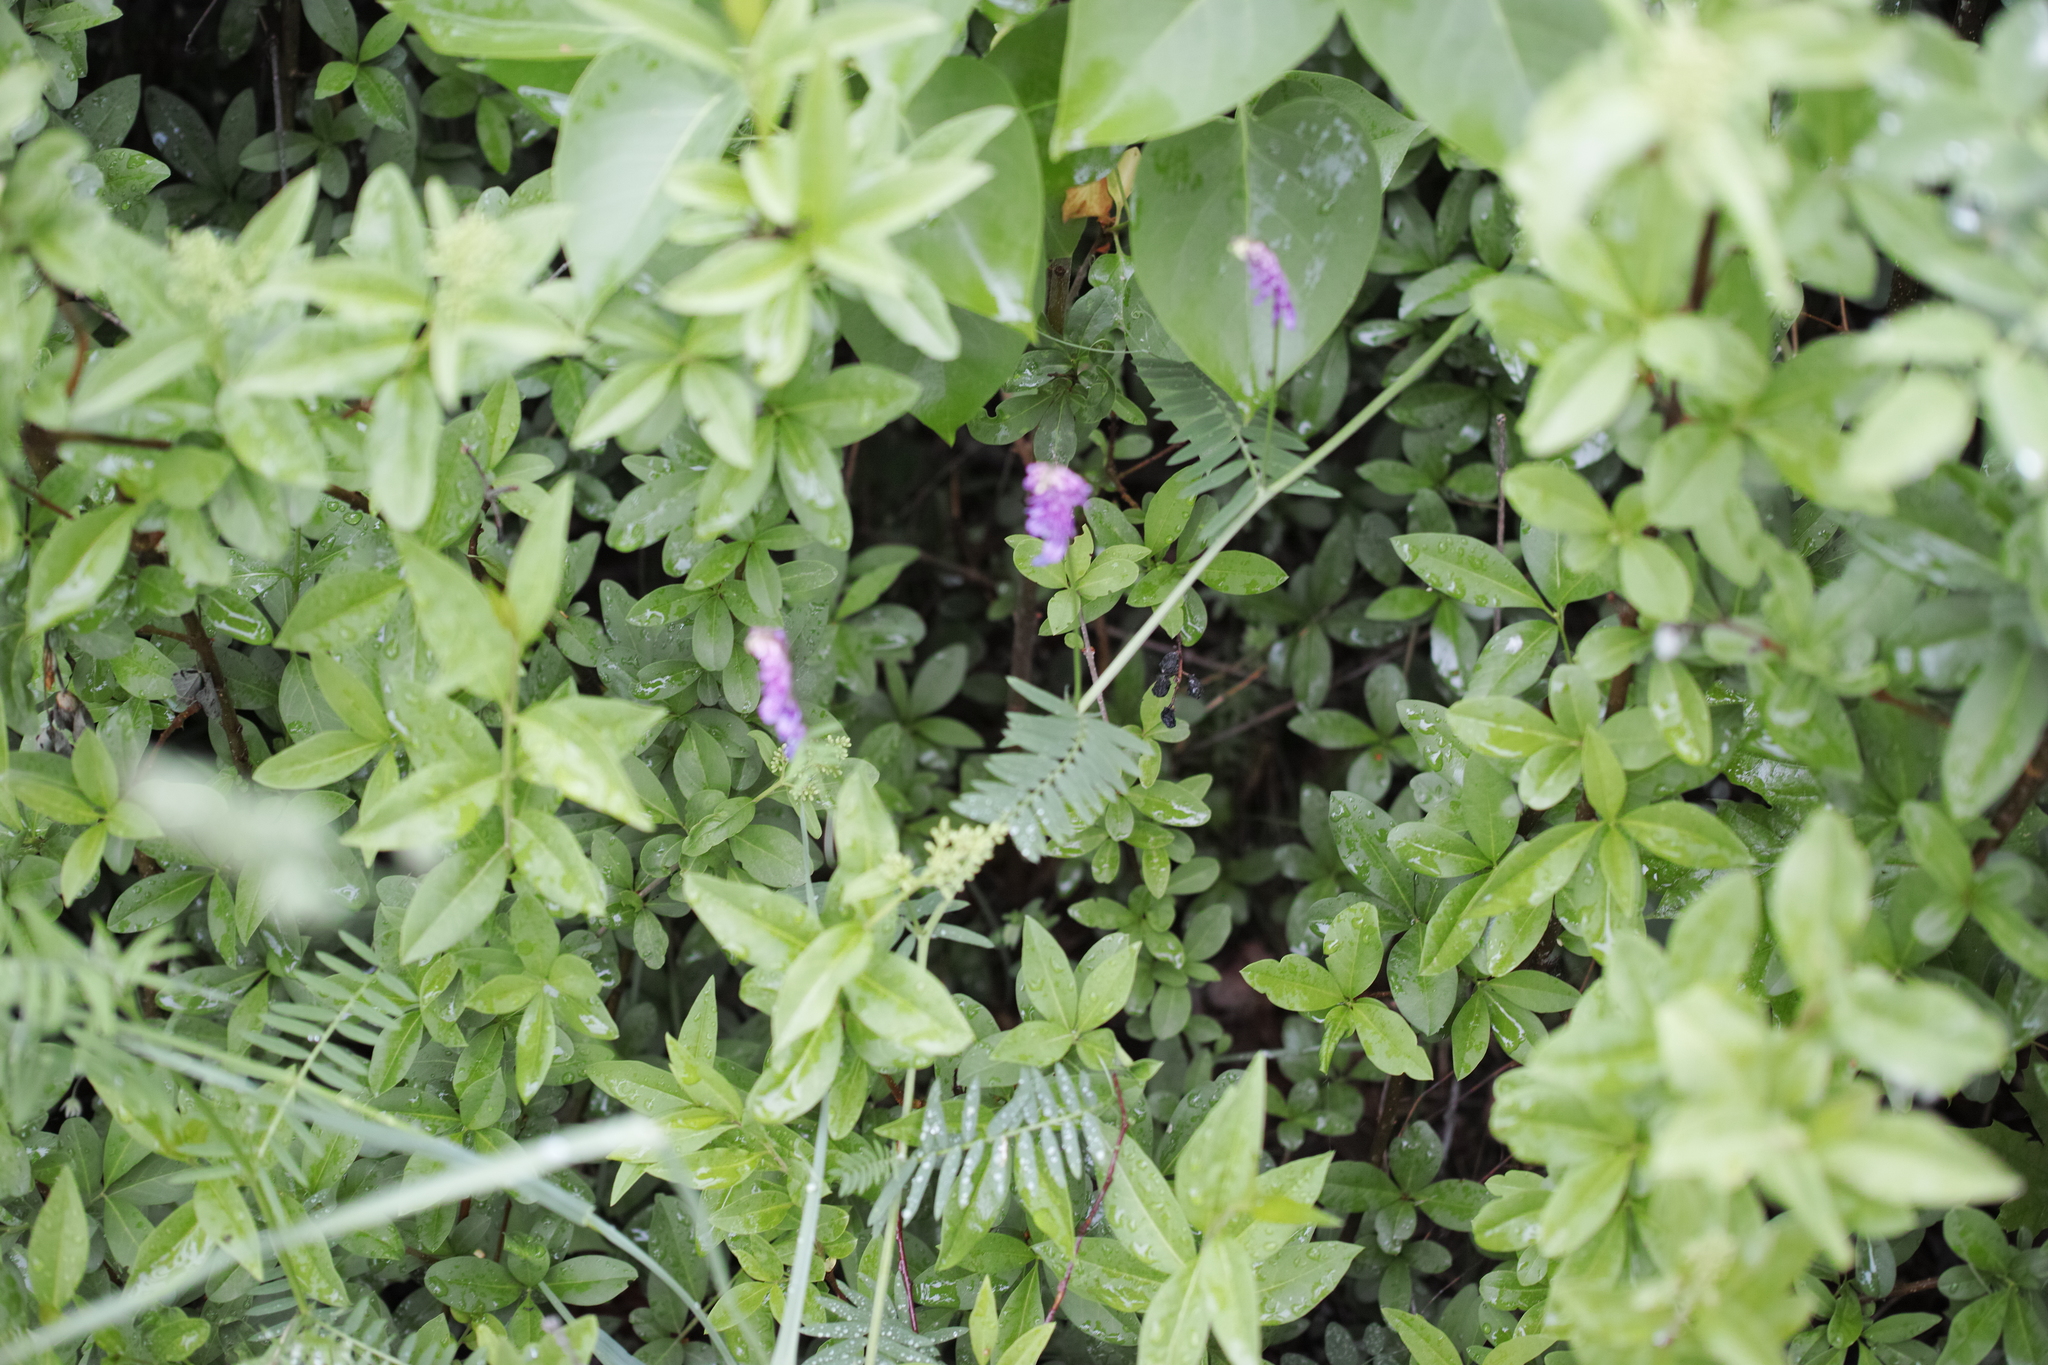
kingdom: Plantae
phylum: Tracheophyta
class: Magnoliopsida
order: Fabales
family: Fabaceae
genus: Vicia
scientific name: Vicia cracca
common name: Bird vetch
